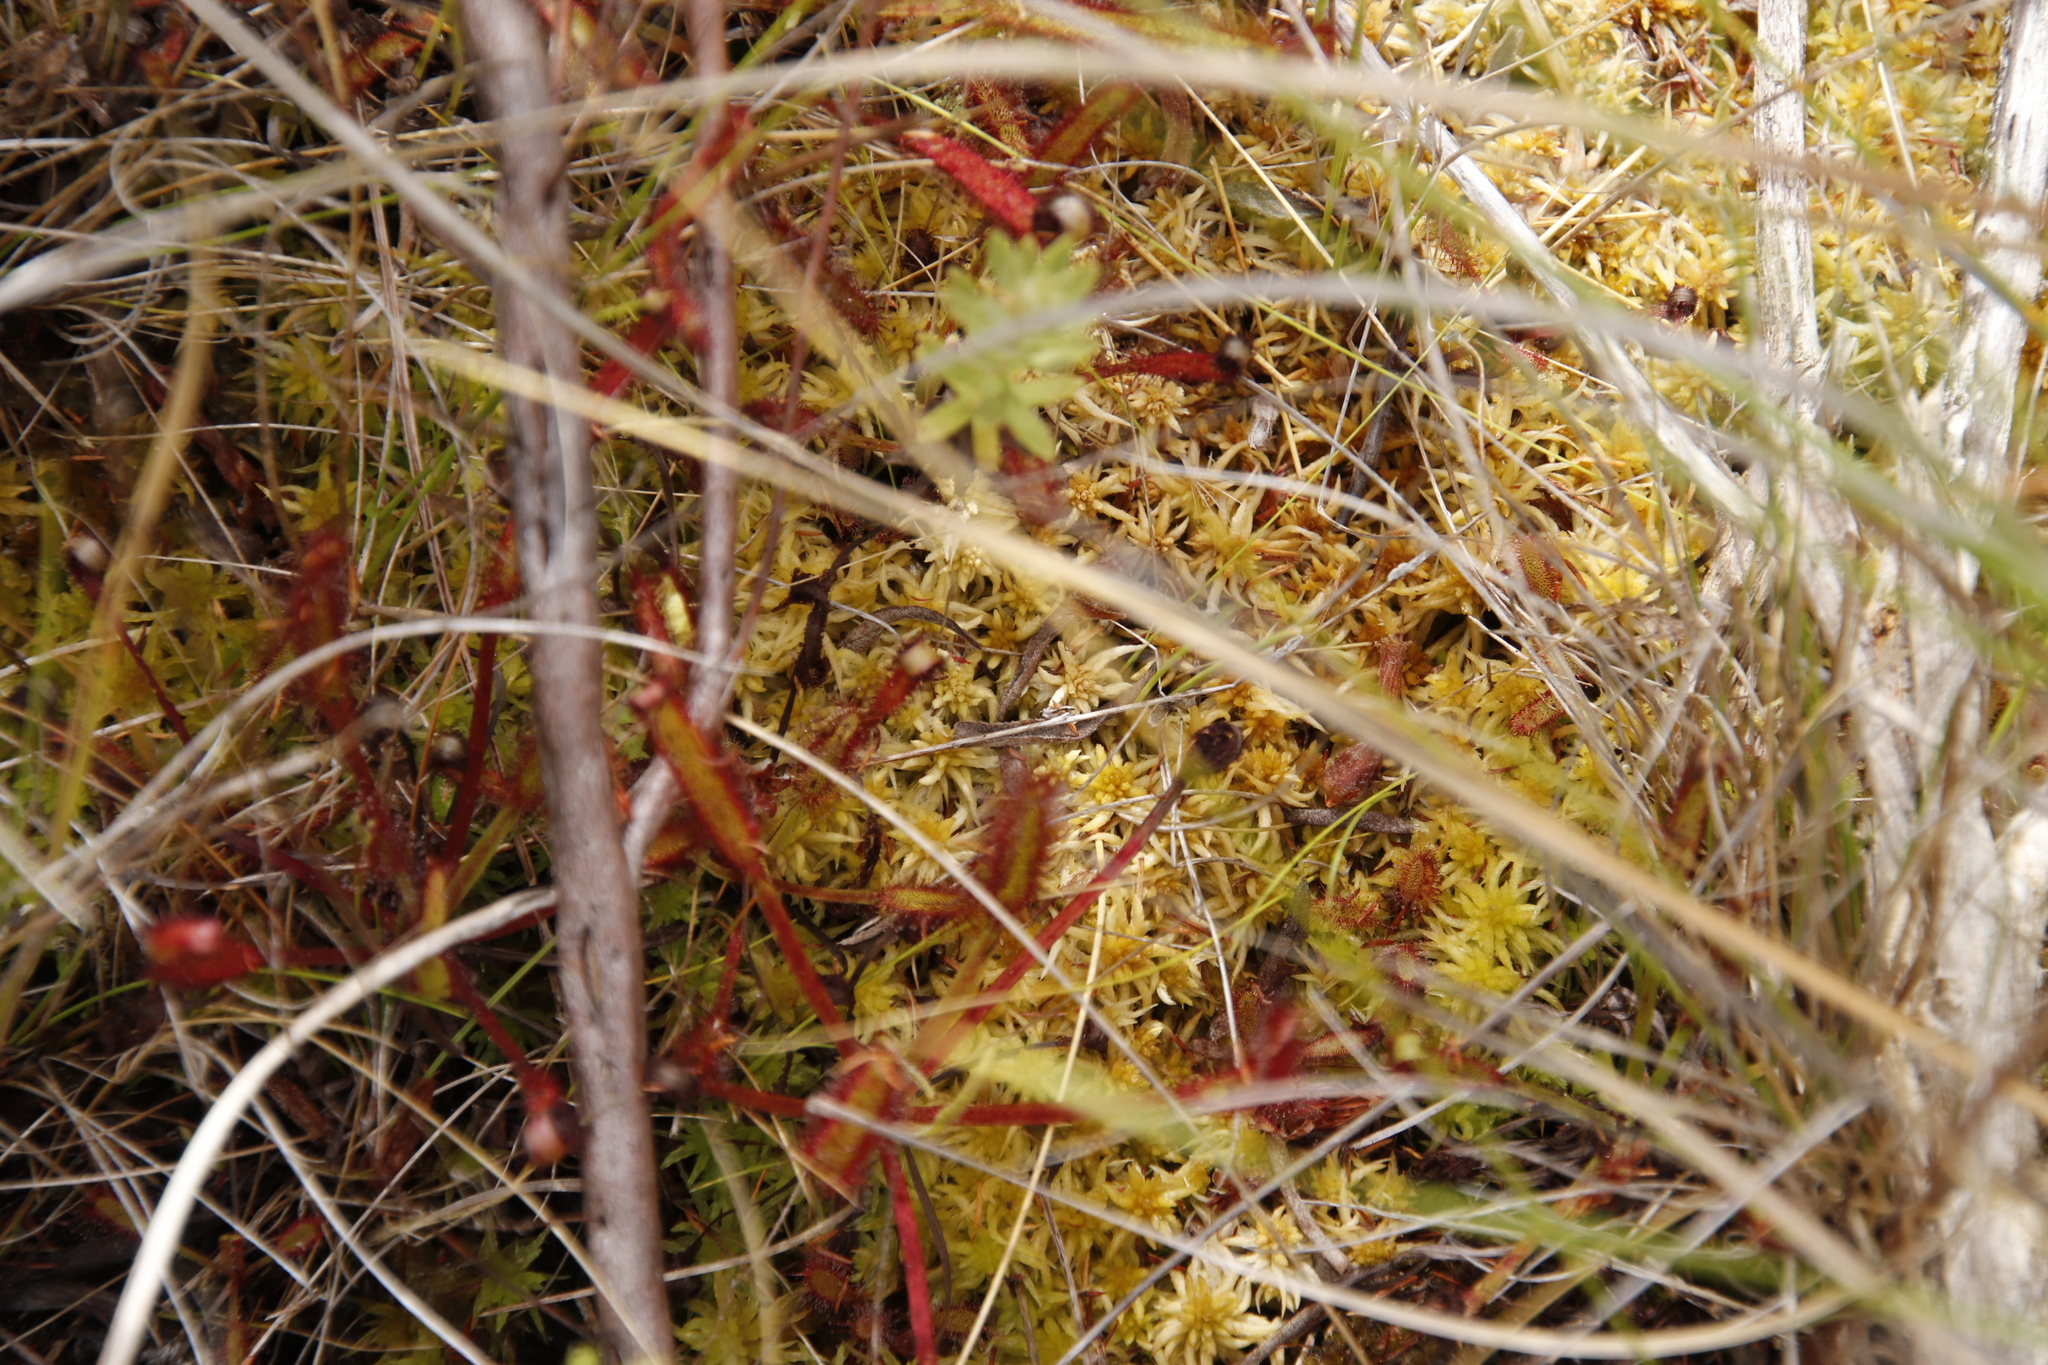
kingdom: Plantae
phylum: Tracheophyta
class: Magnoliopsida
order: Caryophyllales
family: Droseraceae
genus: Drosera
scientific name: Drosera capensis
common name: Cape sundew
